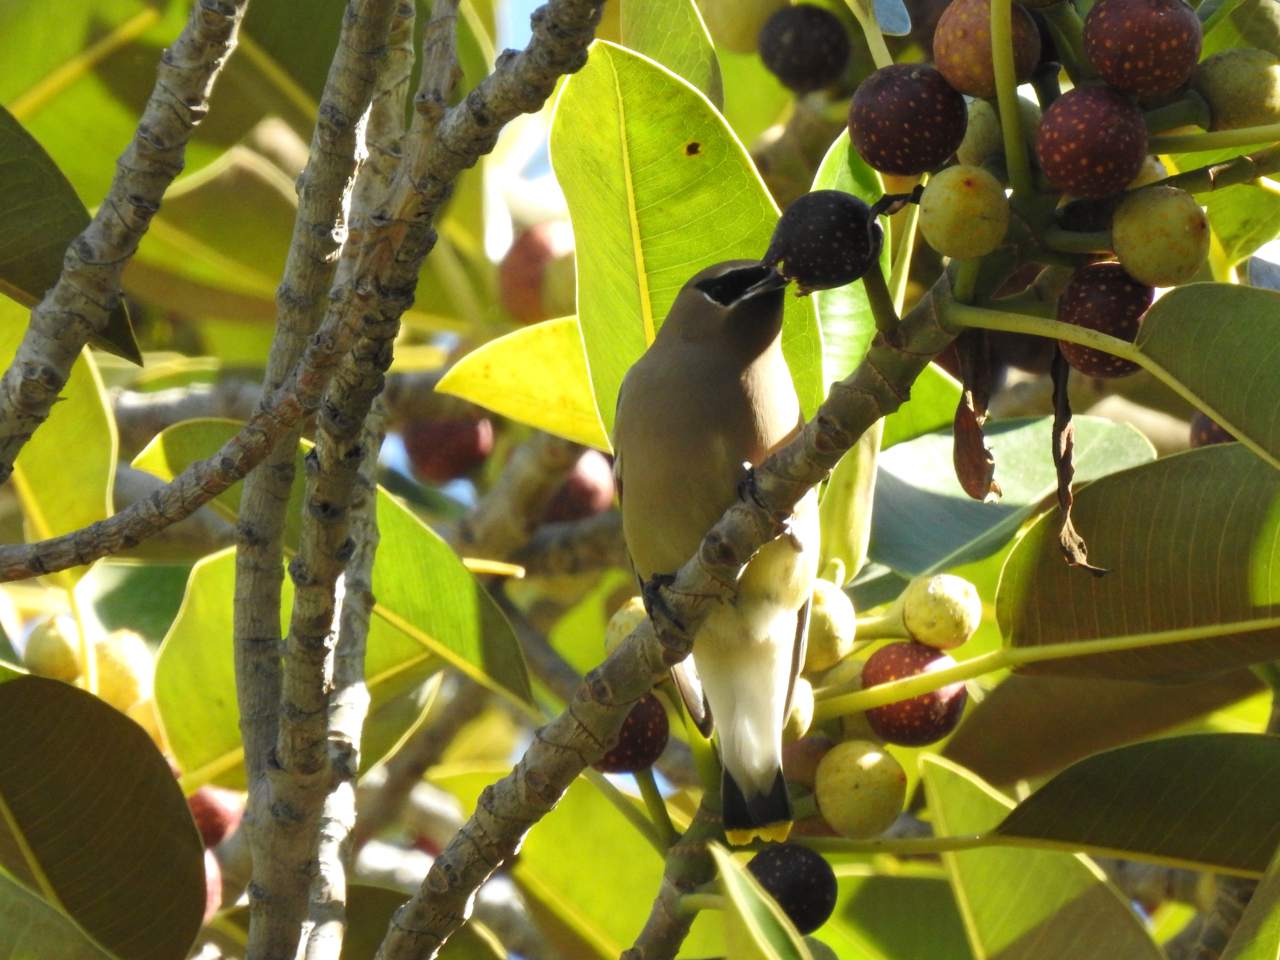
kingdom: Animalia
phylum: Chordata
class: Aves
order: Passeriformes
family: Bombycillidae
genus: Bombycilla
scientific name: Bombycilla cedrorum
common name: Cedar waxwing
